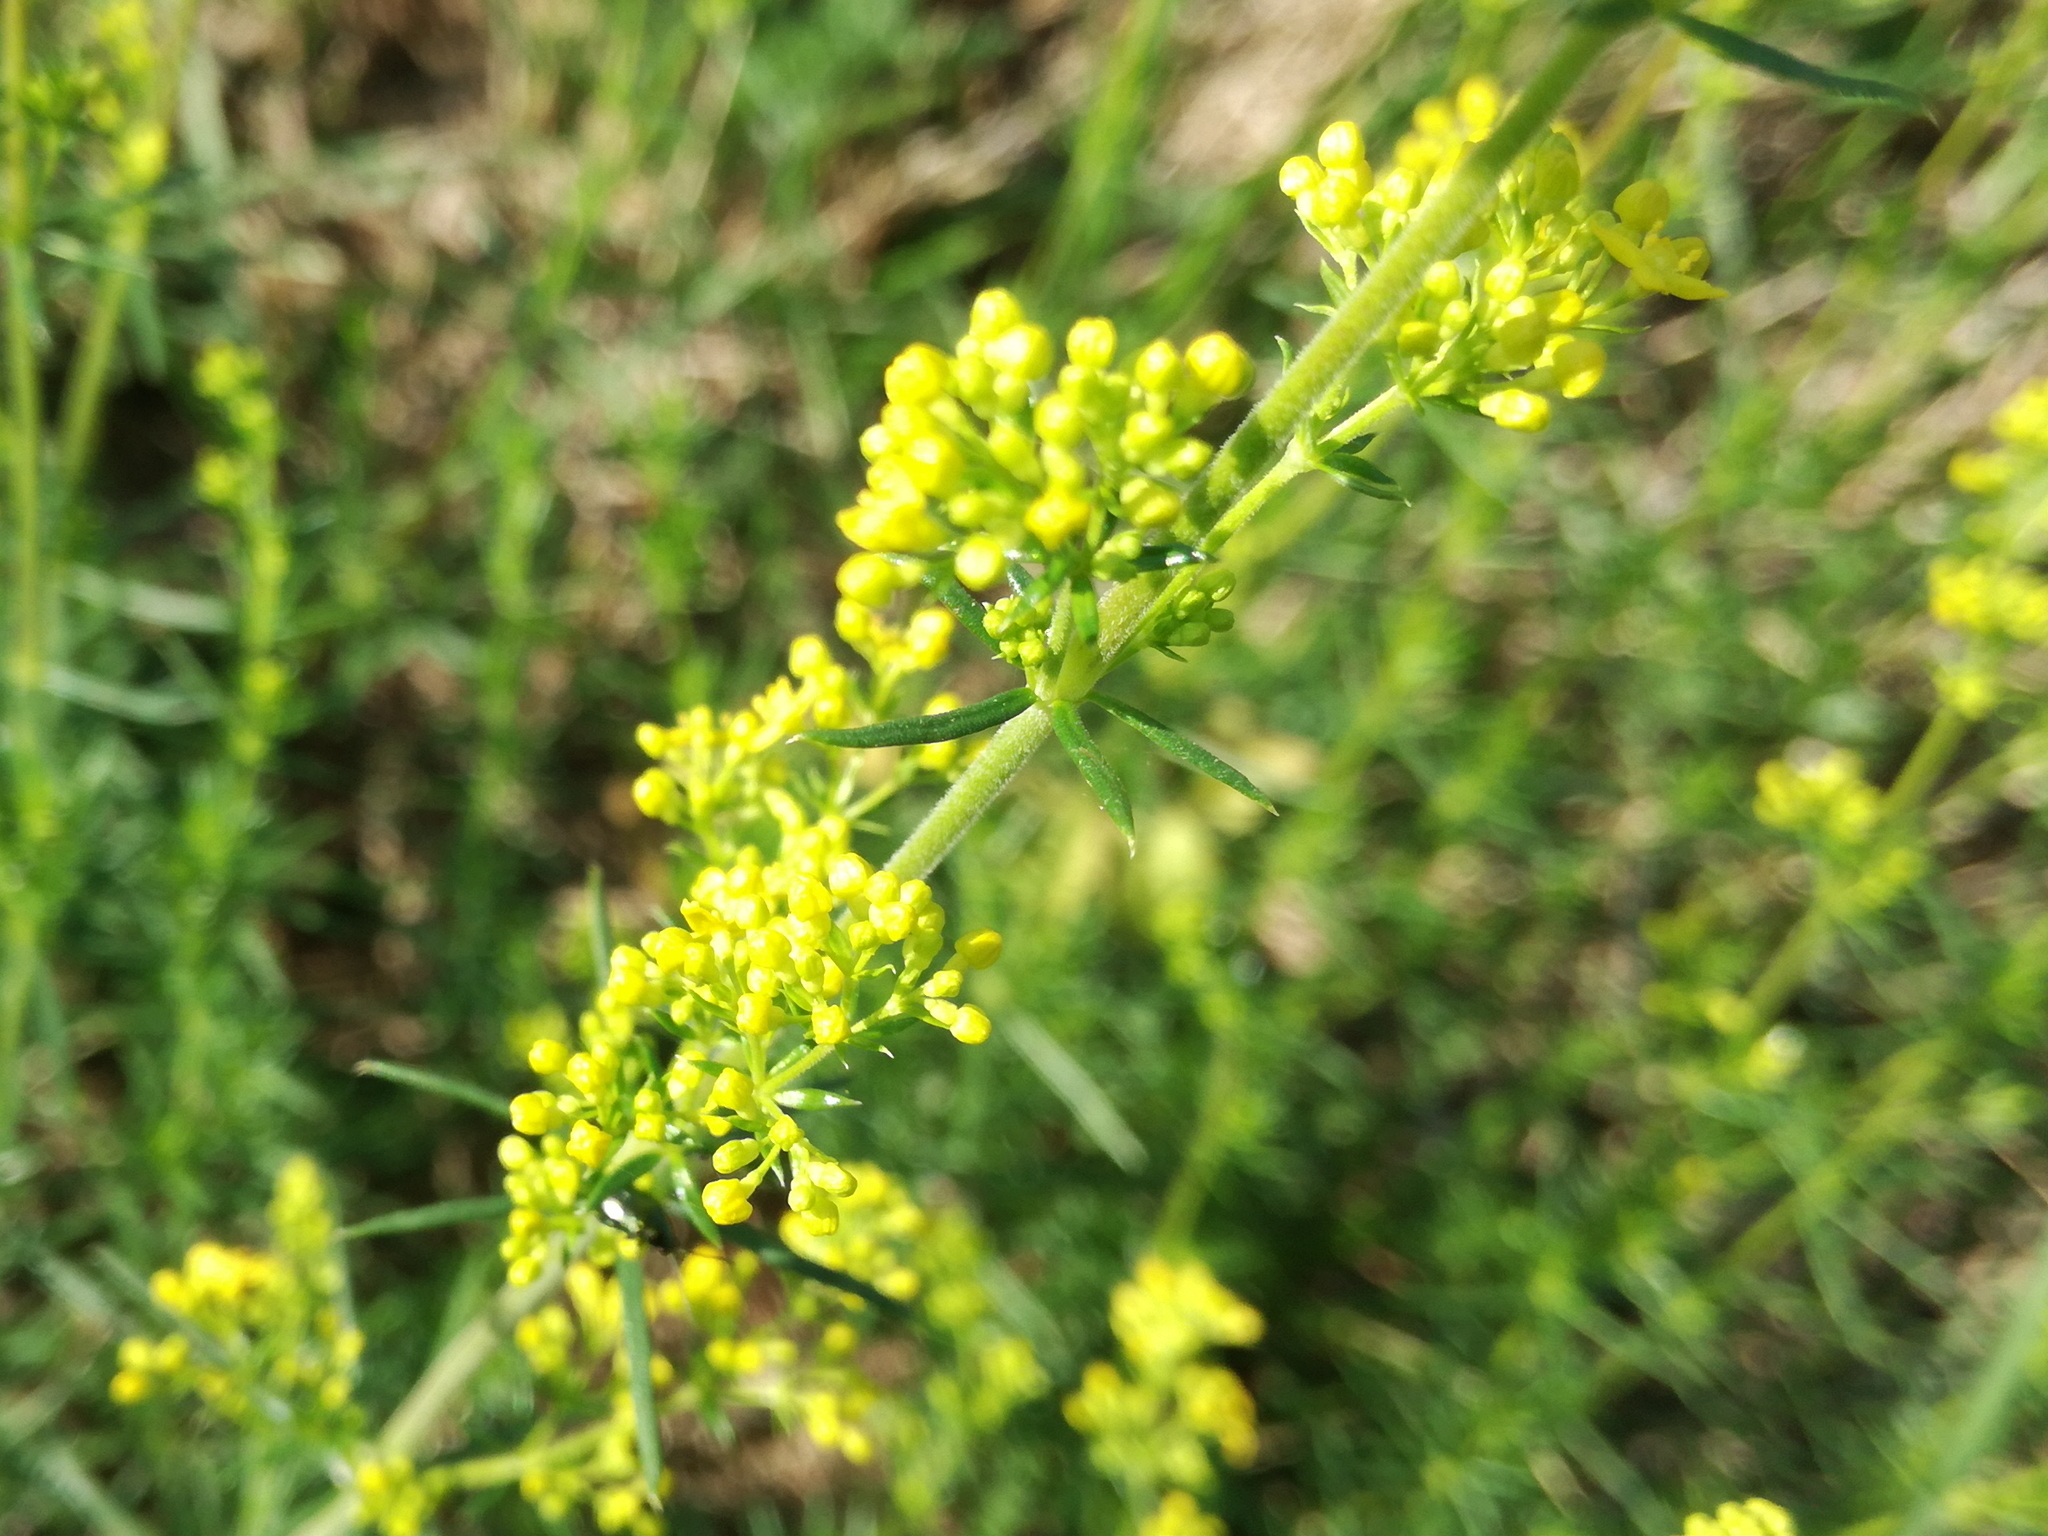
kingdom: Plantae
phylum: Tracheophyta
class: Magnoliopsida
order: Gentianales
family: Rubiaceae
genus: Galium
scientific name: Galium verum
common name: Lady's bedstraw
